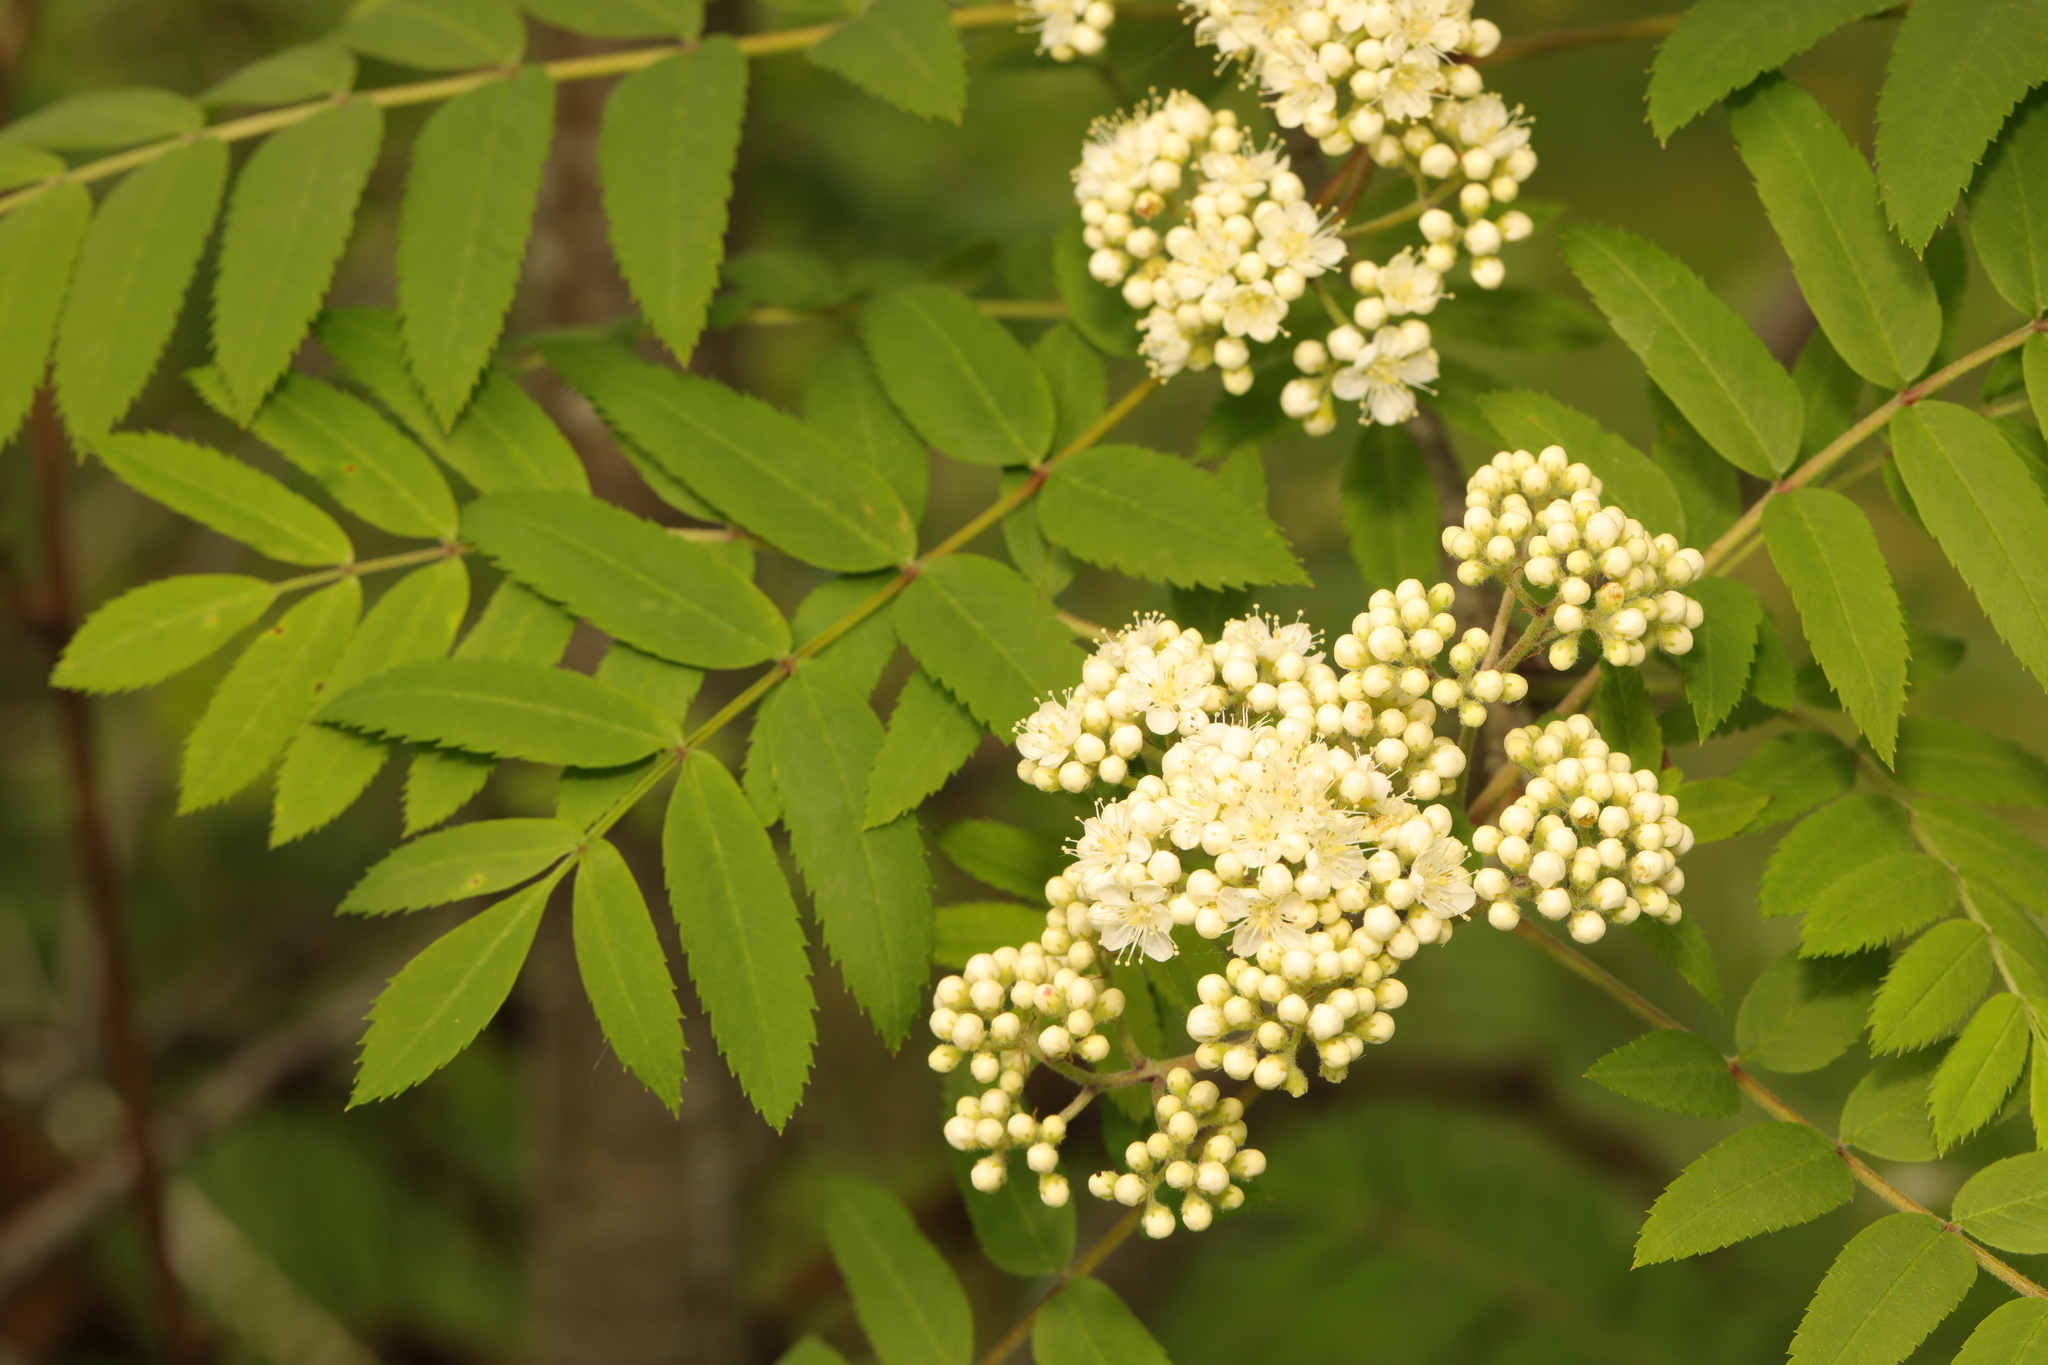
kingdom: Plantae
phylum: Tracheophyta
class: Magnoliopsida
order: Rosales
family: Rosaceae
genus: Sorbus
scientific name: Sorbus aucuparia
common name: Rowan
